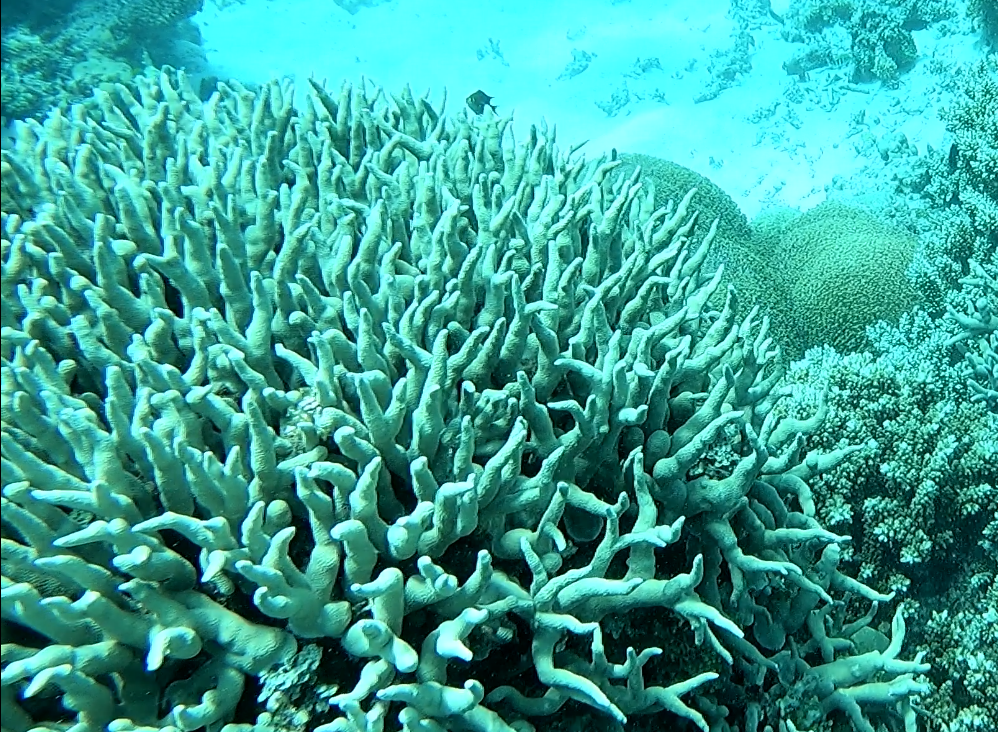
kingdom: Animalia
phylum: Cnidaria
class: Anthozoa
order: Scleractinia
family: Poritidae
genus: Porites
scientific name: Porites cylindrica
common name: Hump coral
